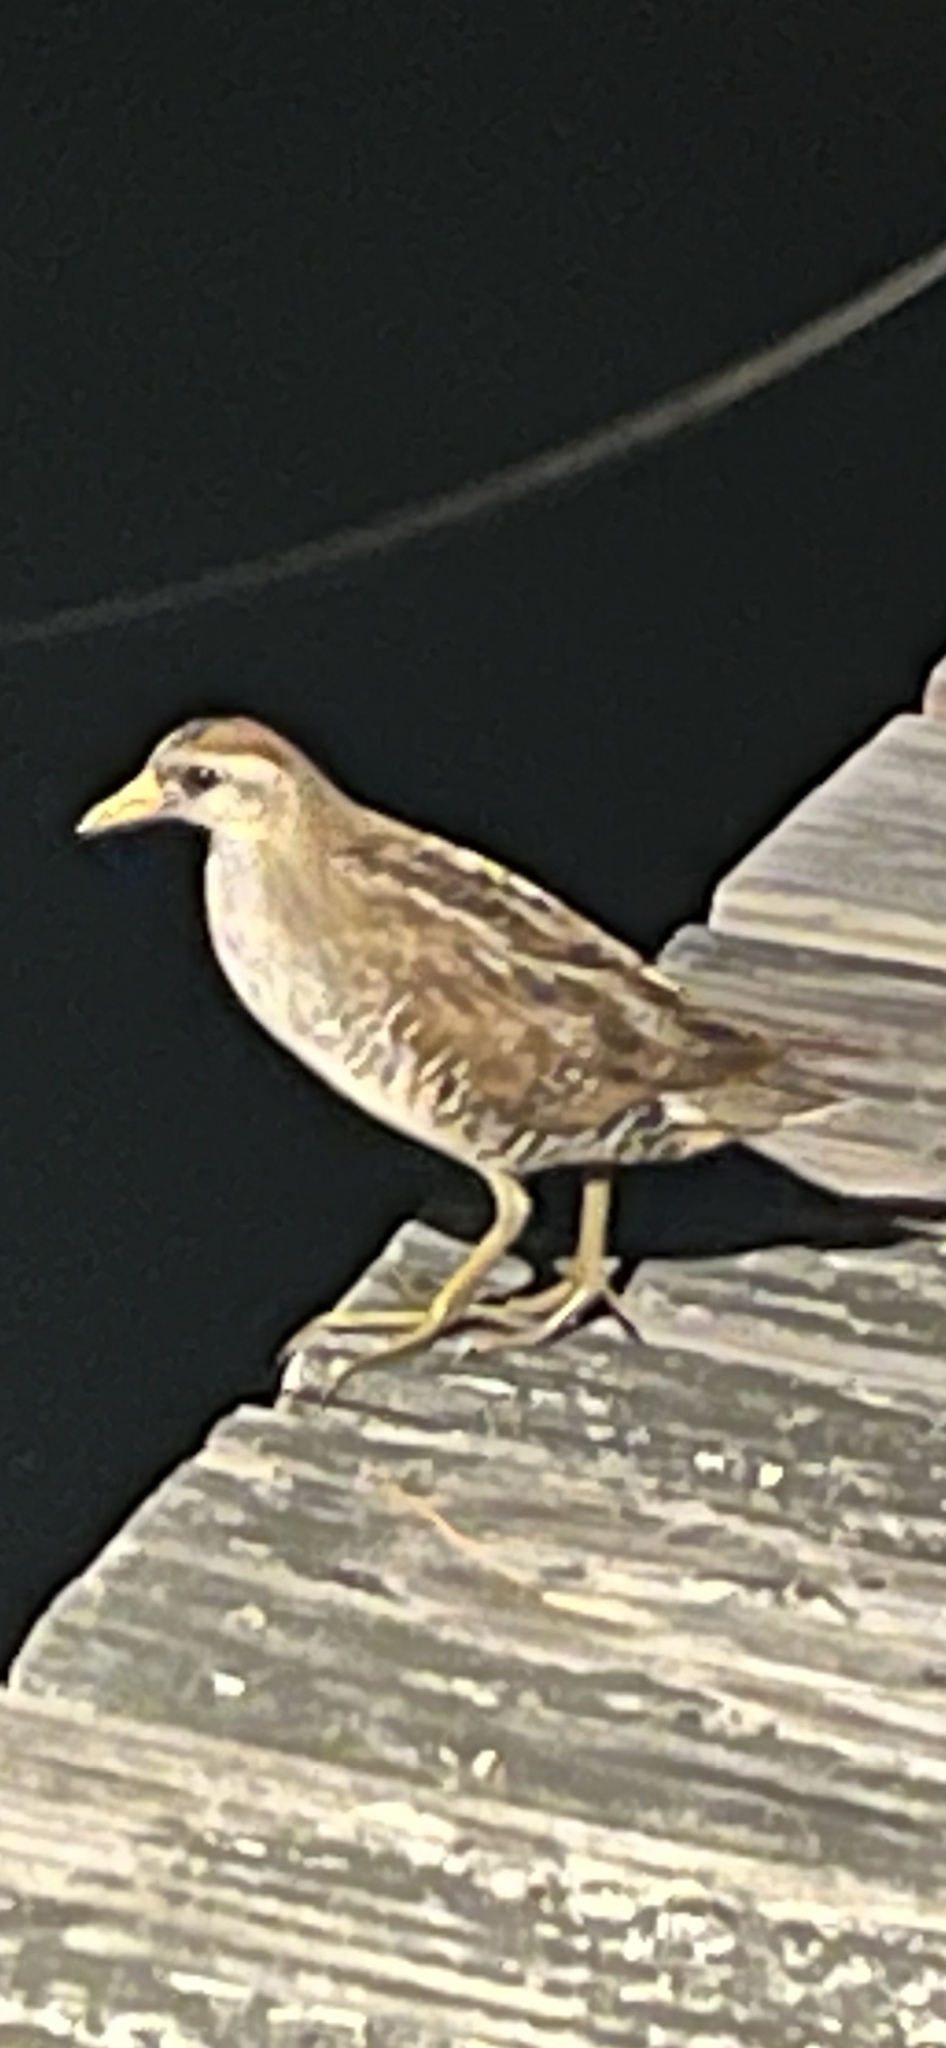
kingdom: Animalia
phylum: Chordata
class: Aves
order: Gruiformes
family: Rallidae
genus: Porzana
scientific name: Porzana carolina
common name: Sora
